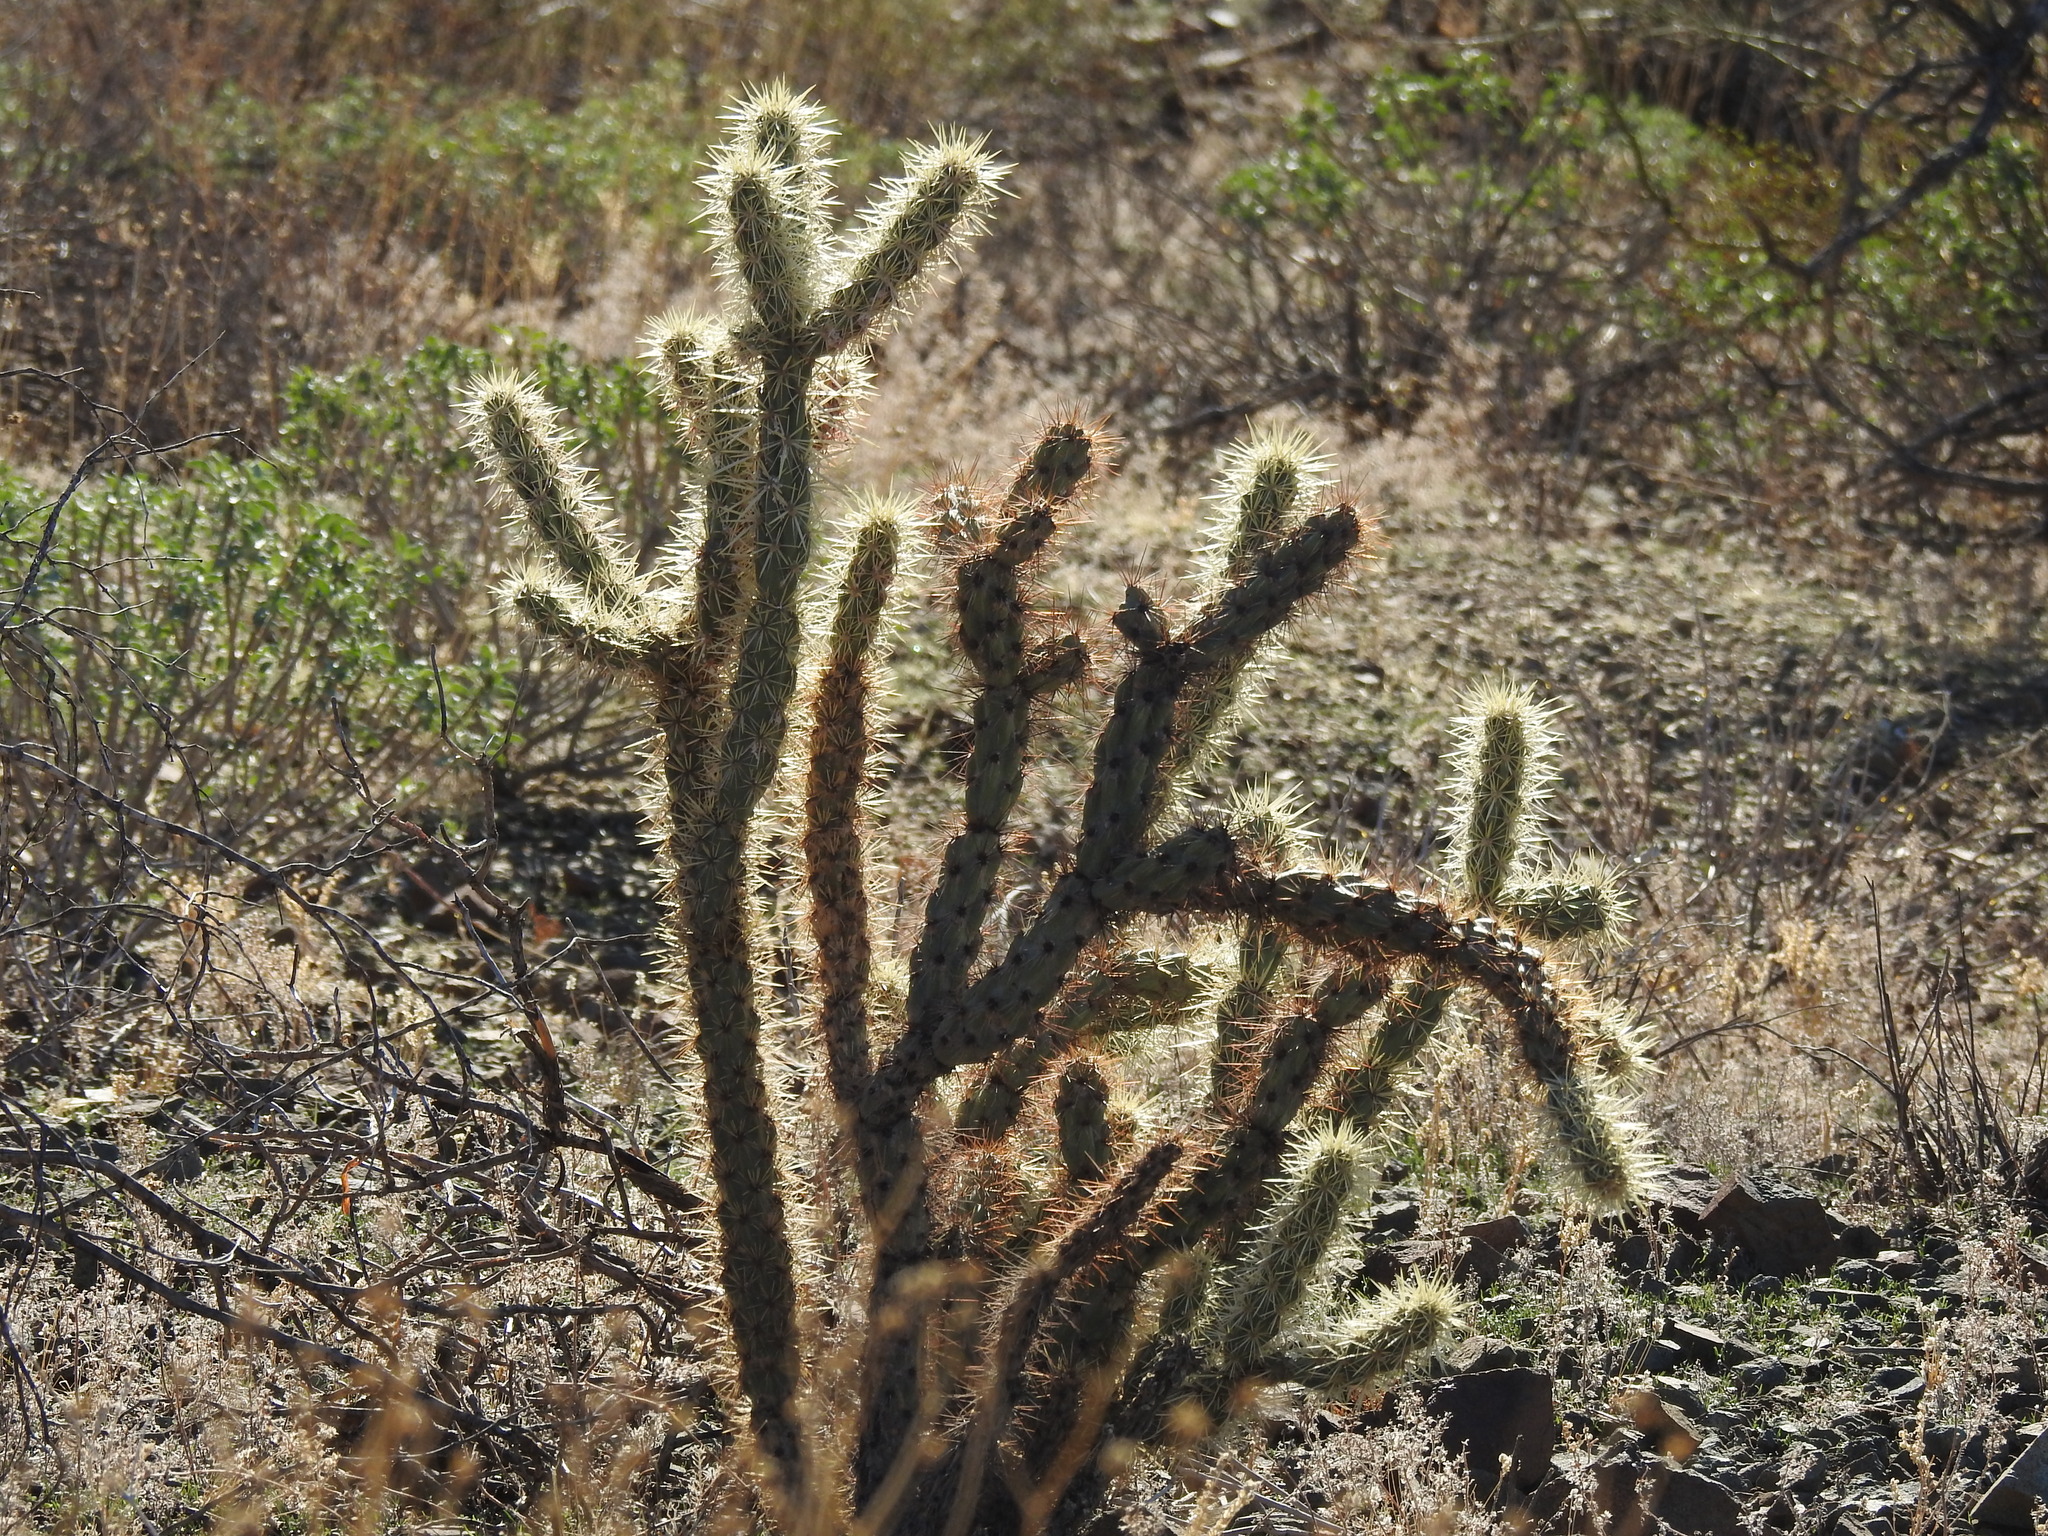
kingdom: Plantae
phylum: Tracheophyta
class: Magnoliopsida
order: Caryophyllales
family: Cactaceae
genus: Cylindropuntia
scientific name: Cylindropuntia acanthocarpa
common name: Buckhorn cholla
